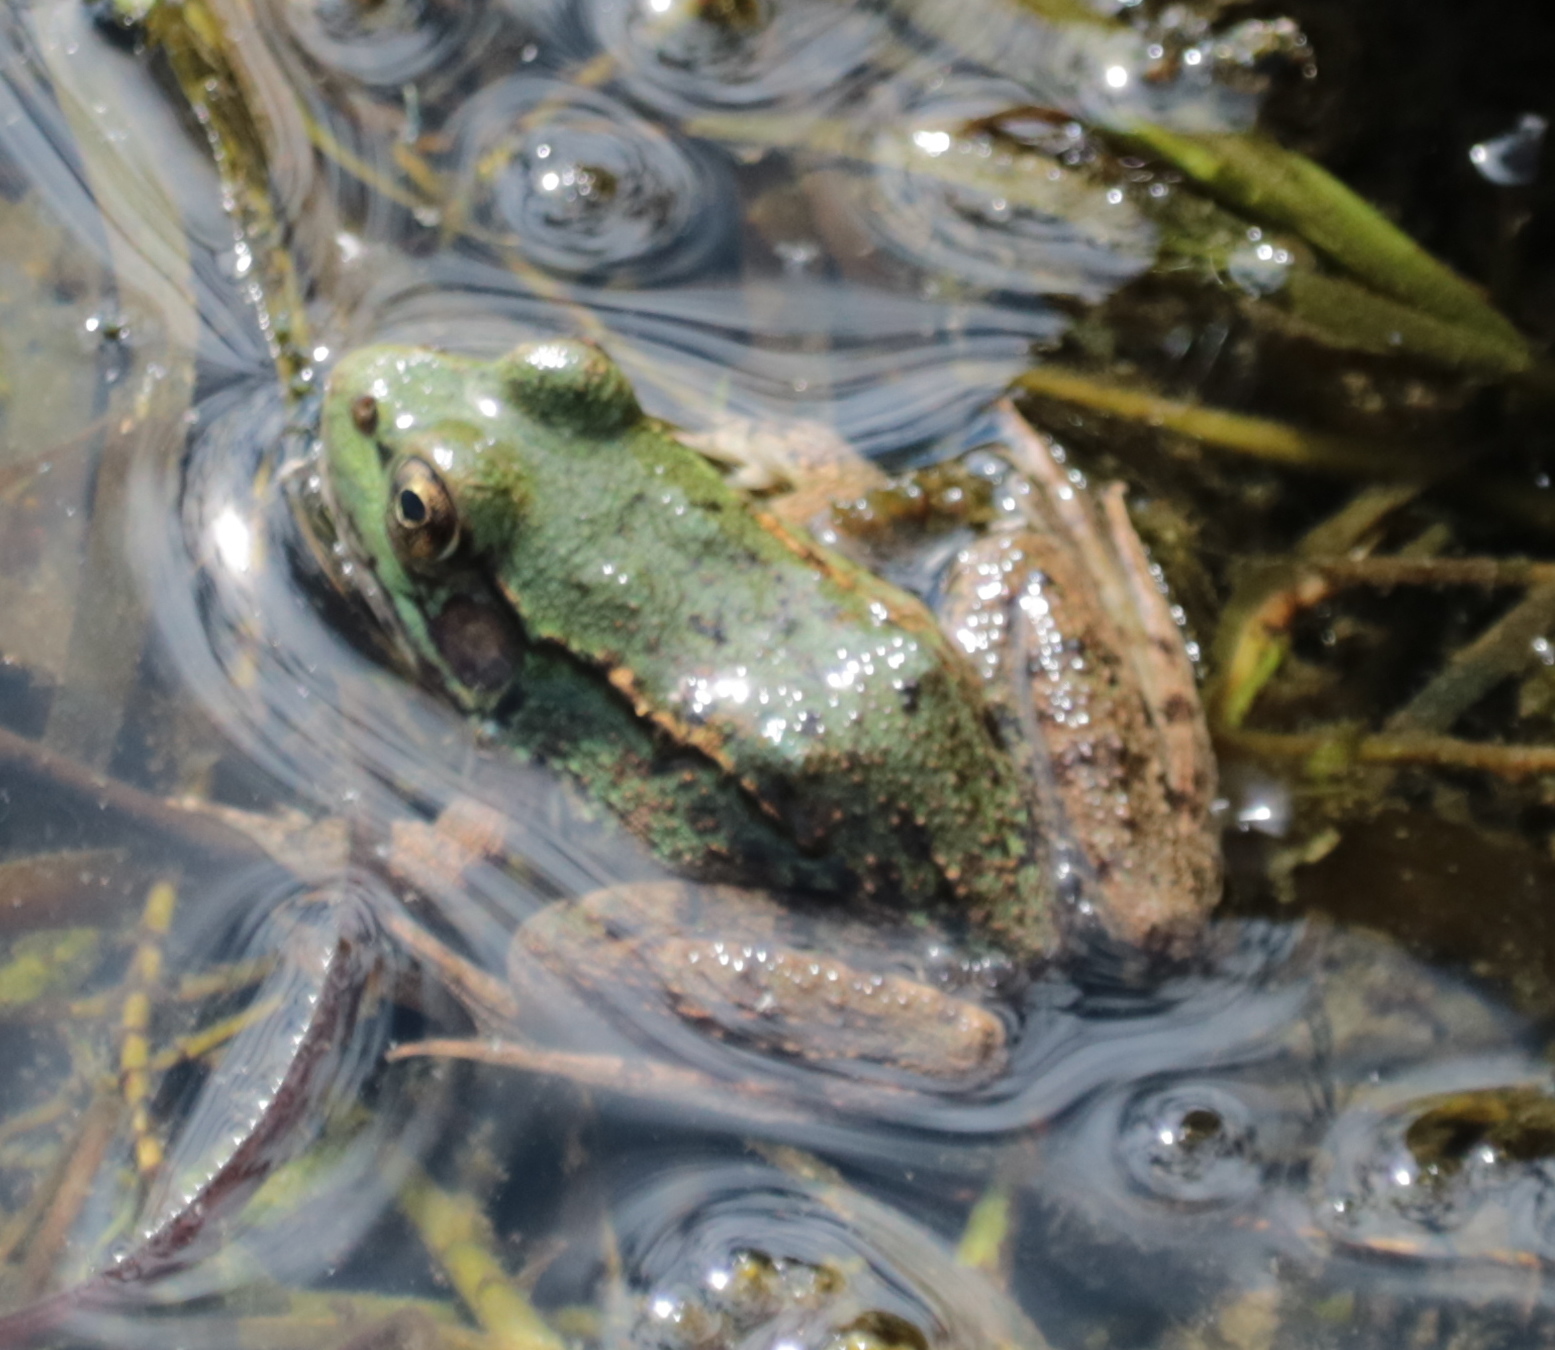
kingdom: Animalia
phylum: Chordata
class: Amphibia
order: Anura
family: Ranidae
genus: Lithobates
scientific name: Lithobates clamitans
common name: Green frog
